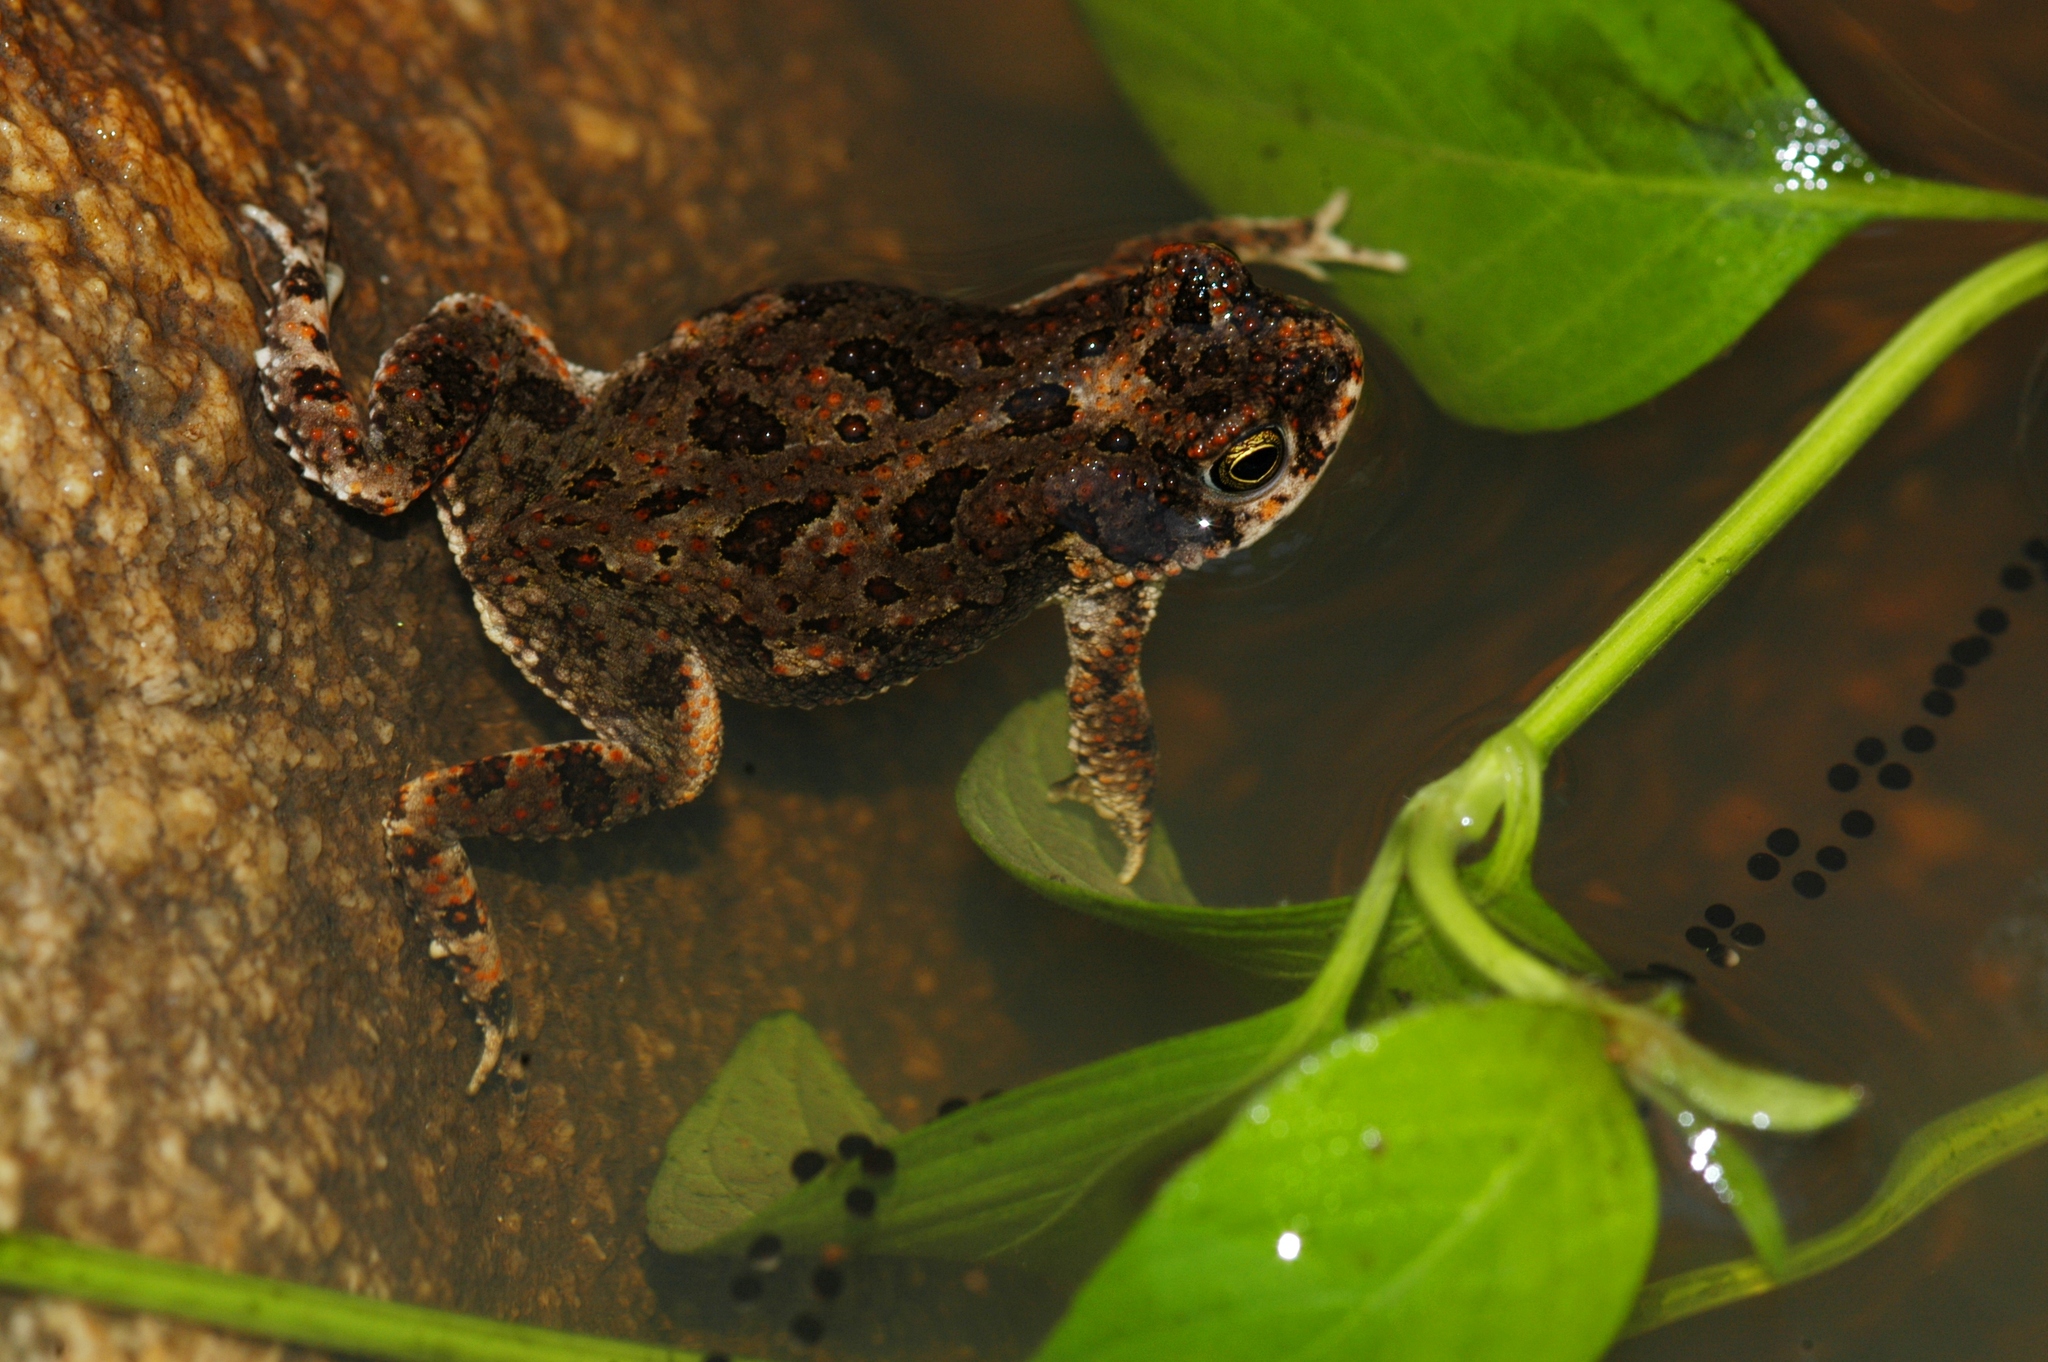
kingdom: Animalia
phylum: Chordata
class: Amphibia
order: Anura
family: Bufonidae
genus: Poyntonophrynus
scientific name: Poyntonophrynus fenoulheti
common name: Fenoulhet's toad
